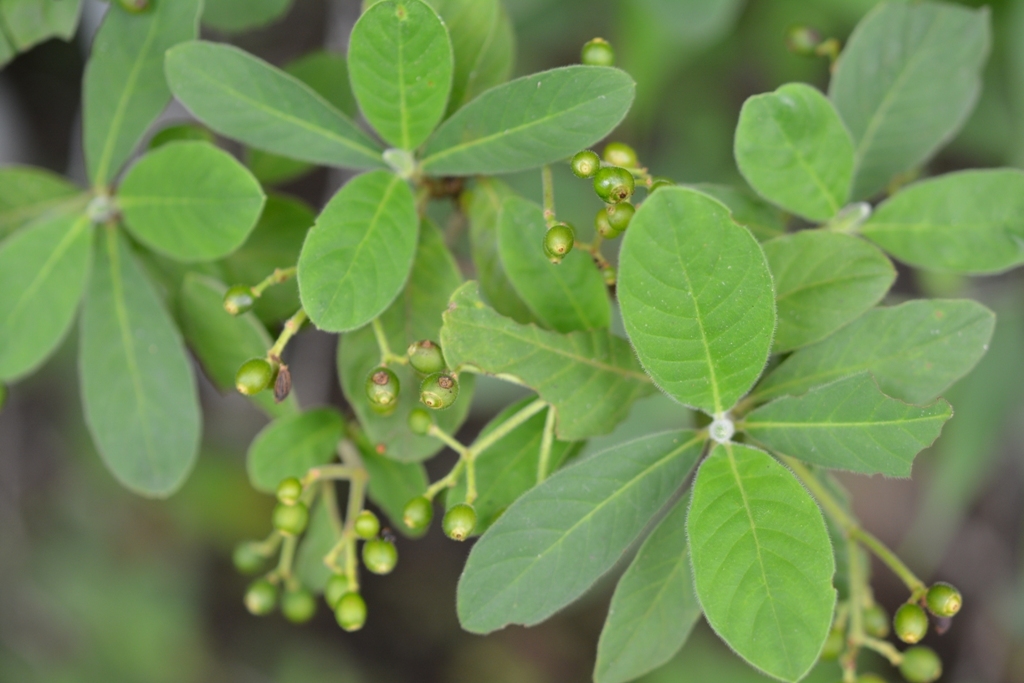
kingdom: Plantae
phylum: Tracheophyta
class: Magnoliopsida
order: Gentianales
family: Rubiaceae
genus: Psychotria
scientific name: Psychotria erythrocarpa
